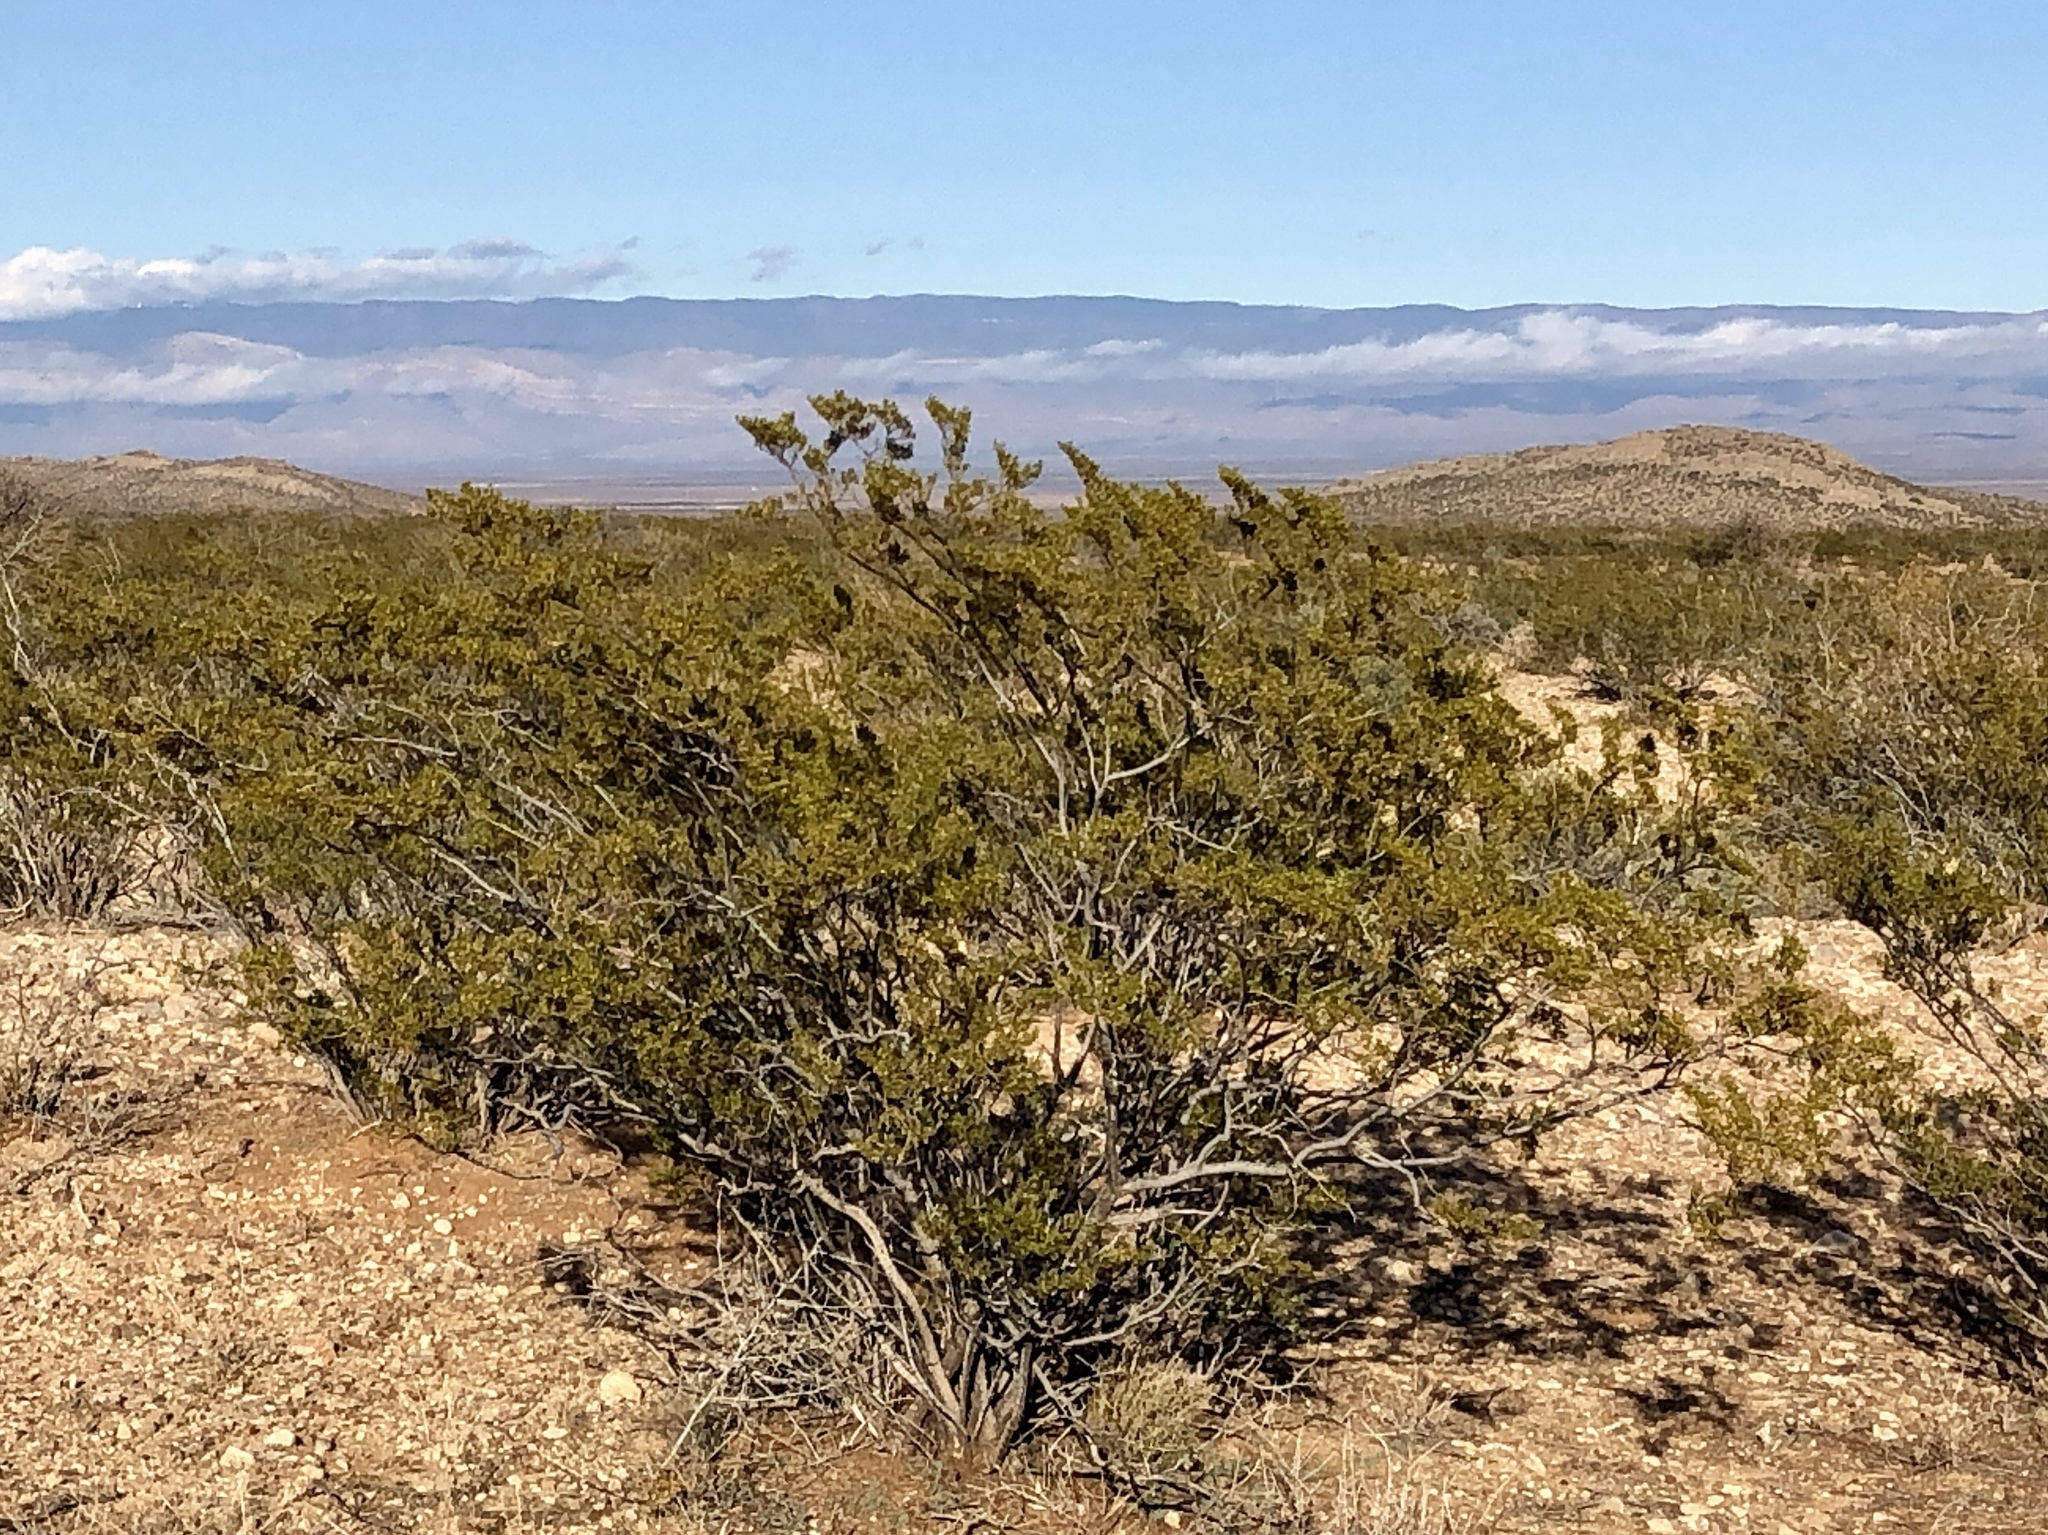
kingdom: Plantae
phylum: Tracheophyta
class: Magnoliopsida
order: Zygophyllales
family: Zygophyllaceae
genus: Larrea
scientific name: Larrea tridentata
